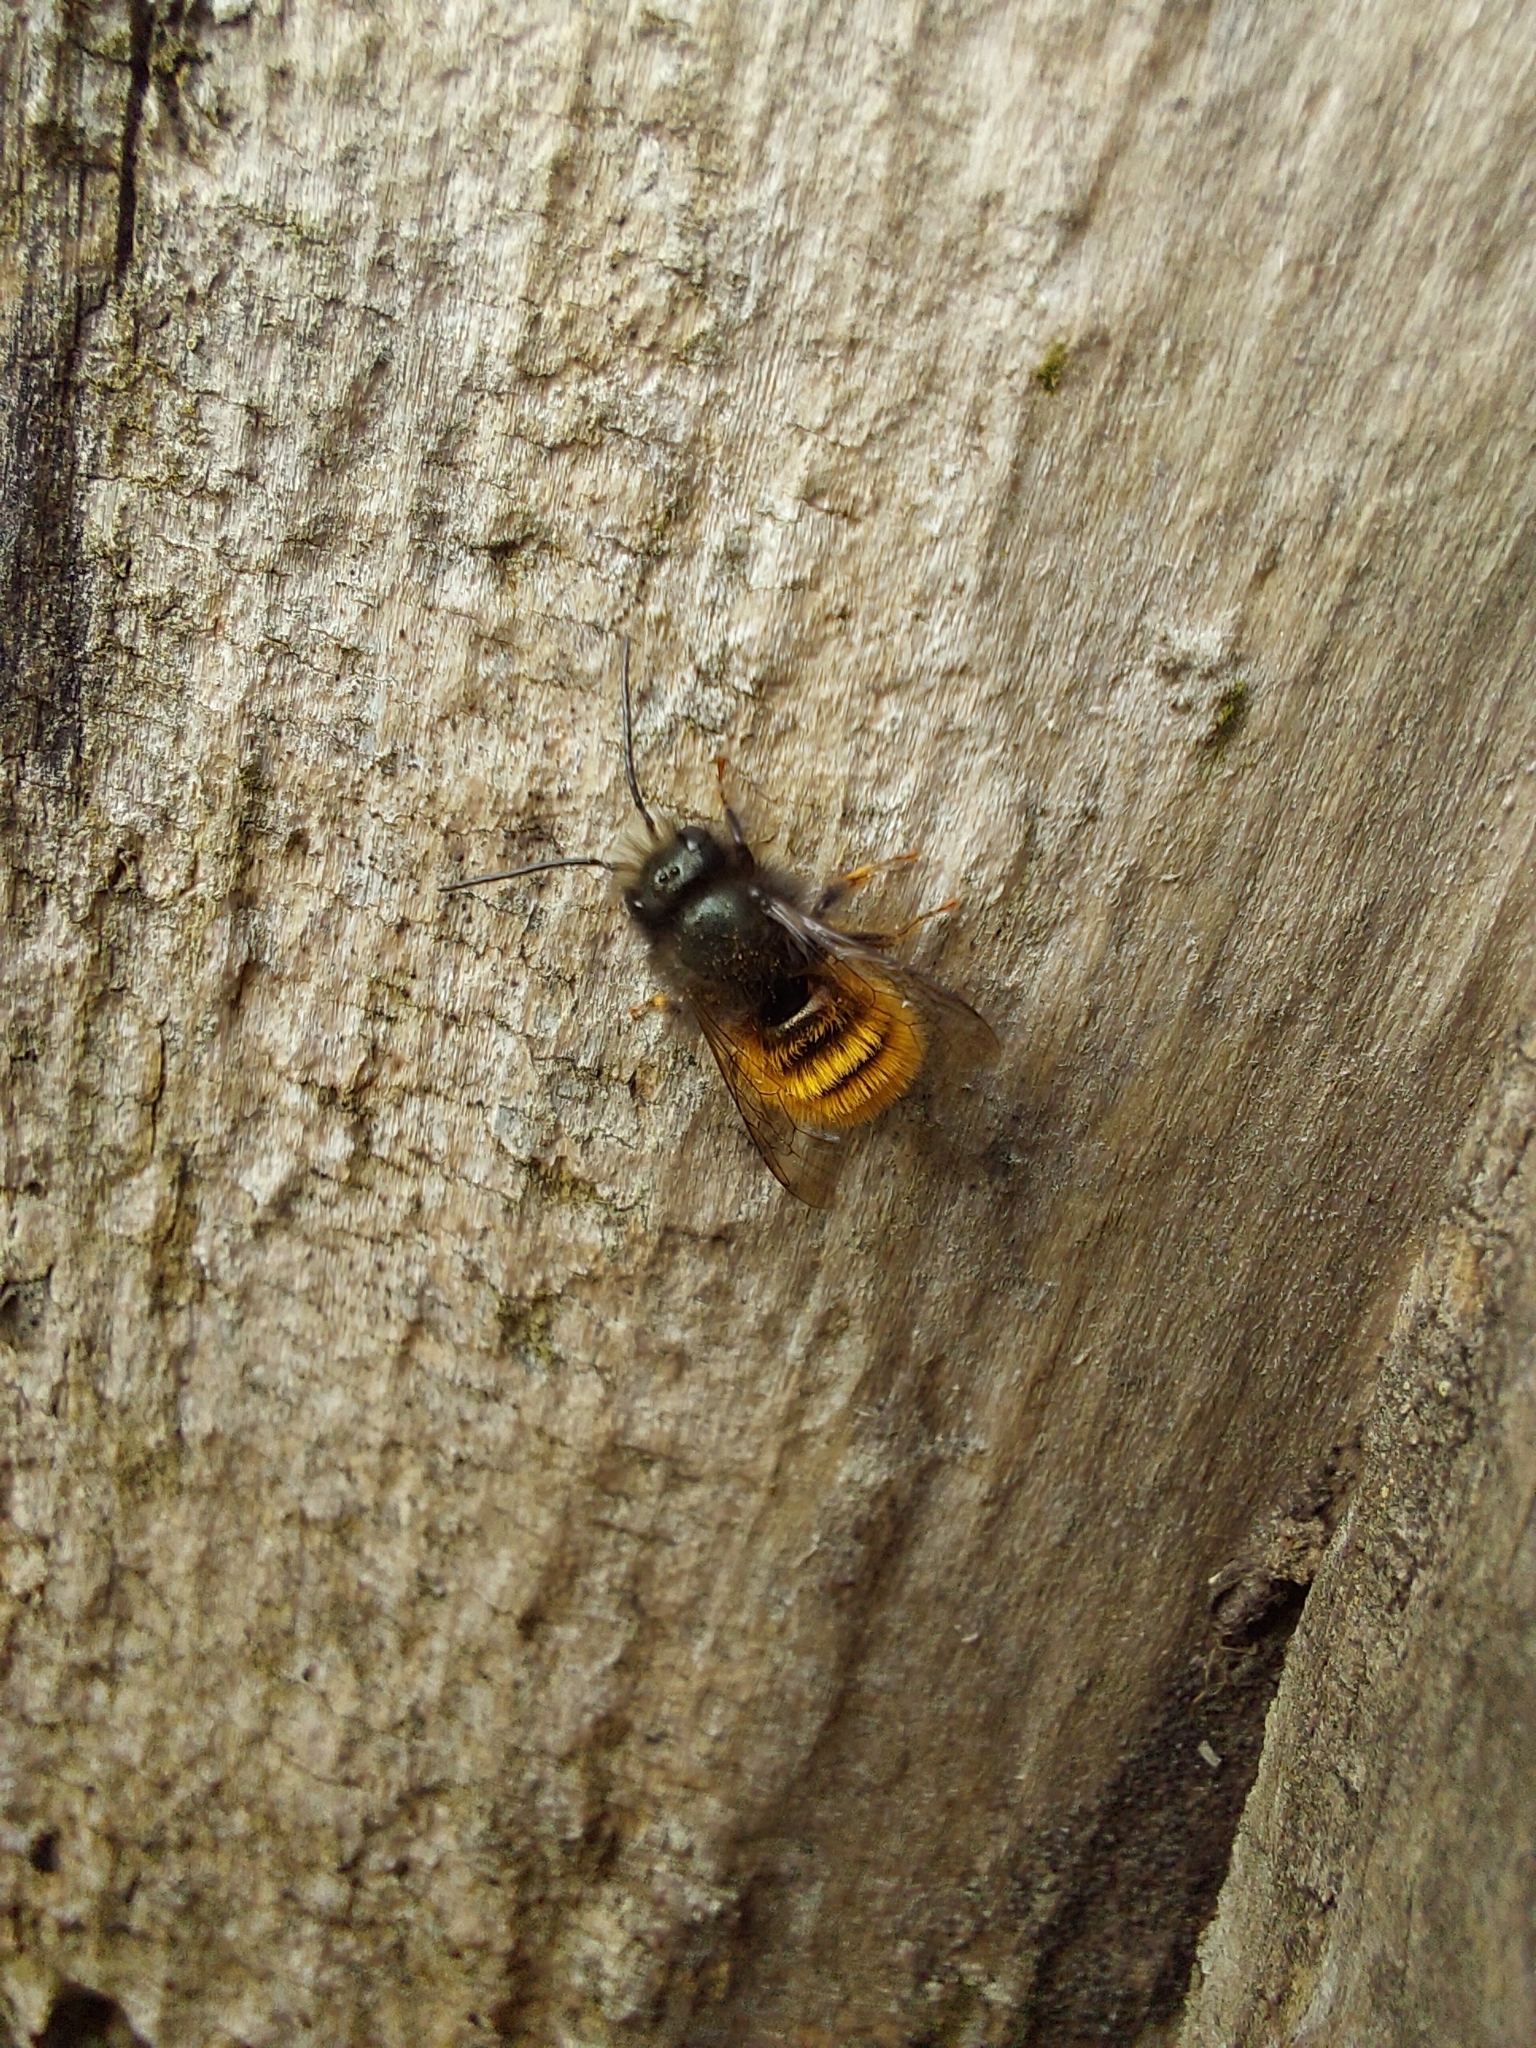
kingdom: Animalia
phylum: Arthropoda
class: Insecta
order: Hymenoptera
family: Megachilidae
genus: Osmia
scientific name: Osmia cornuta
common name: Mason bee
